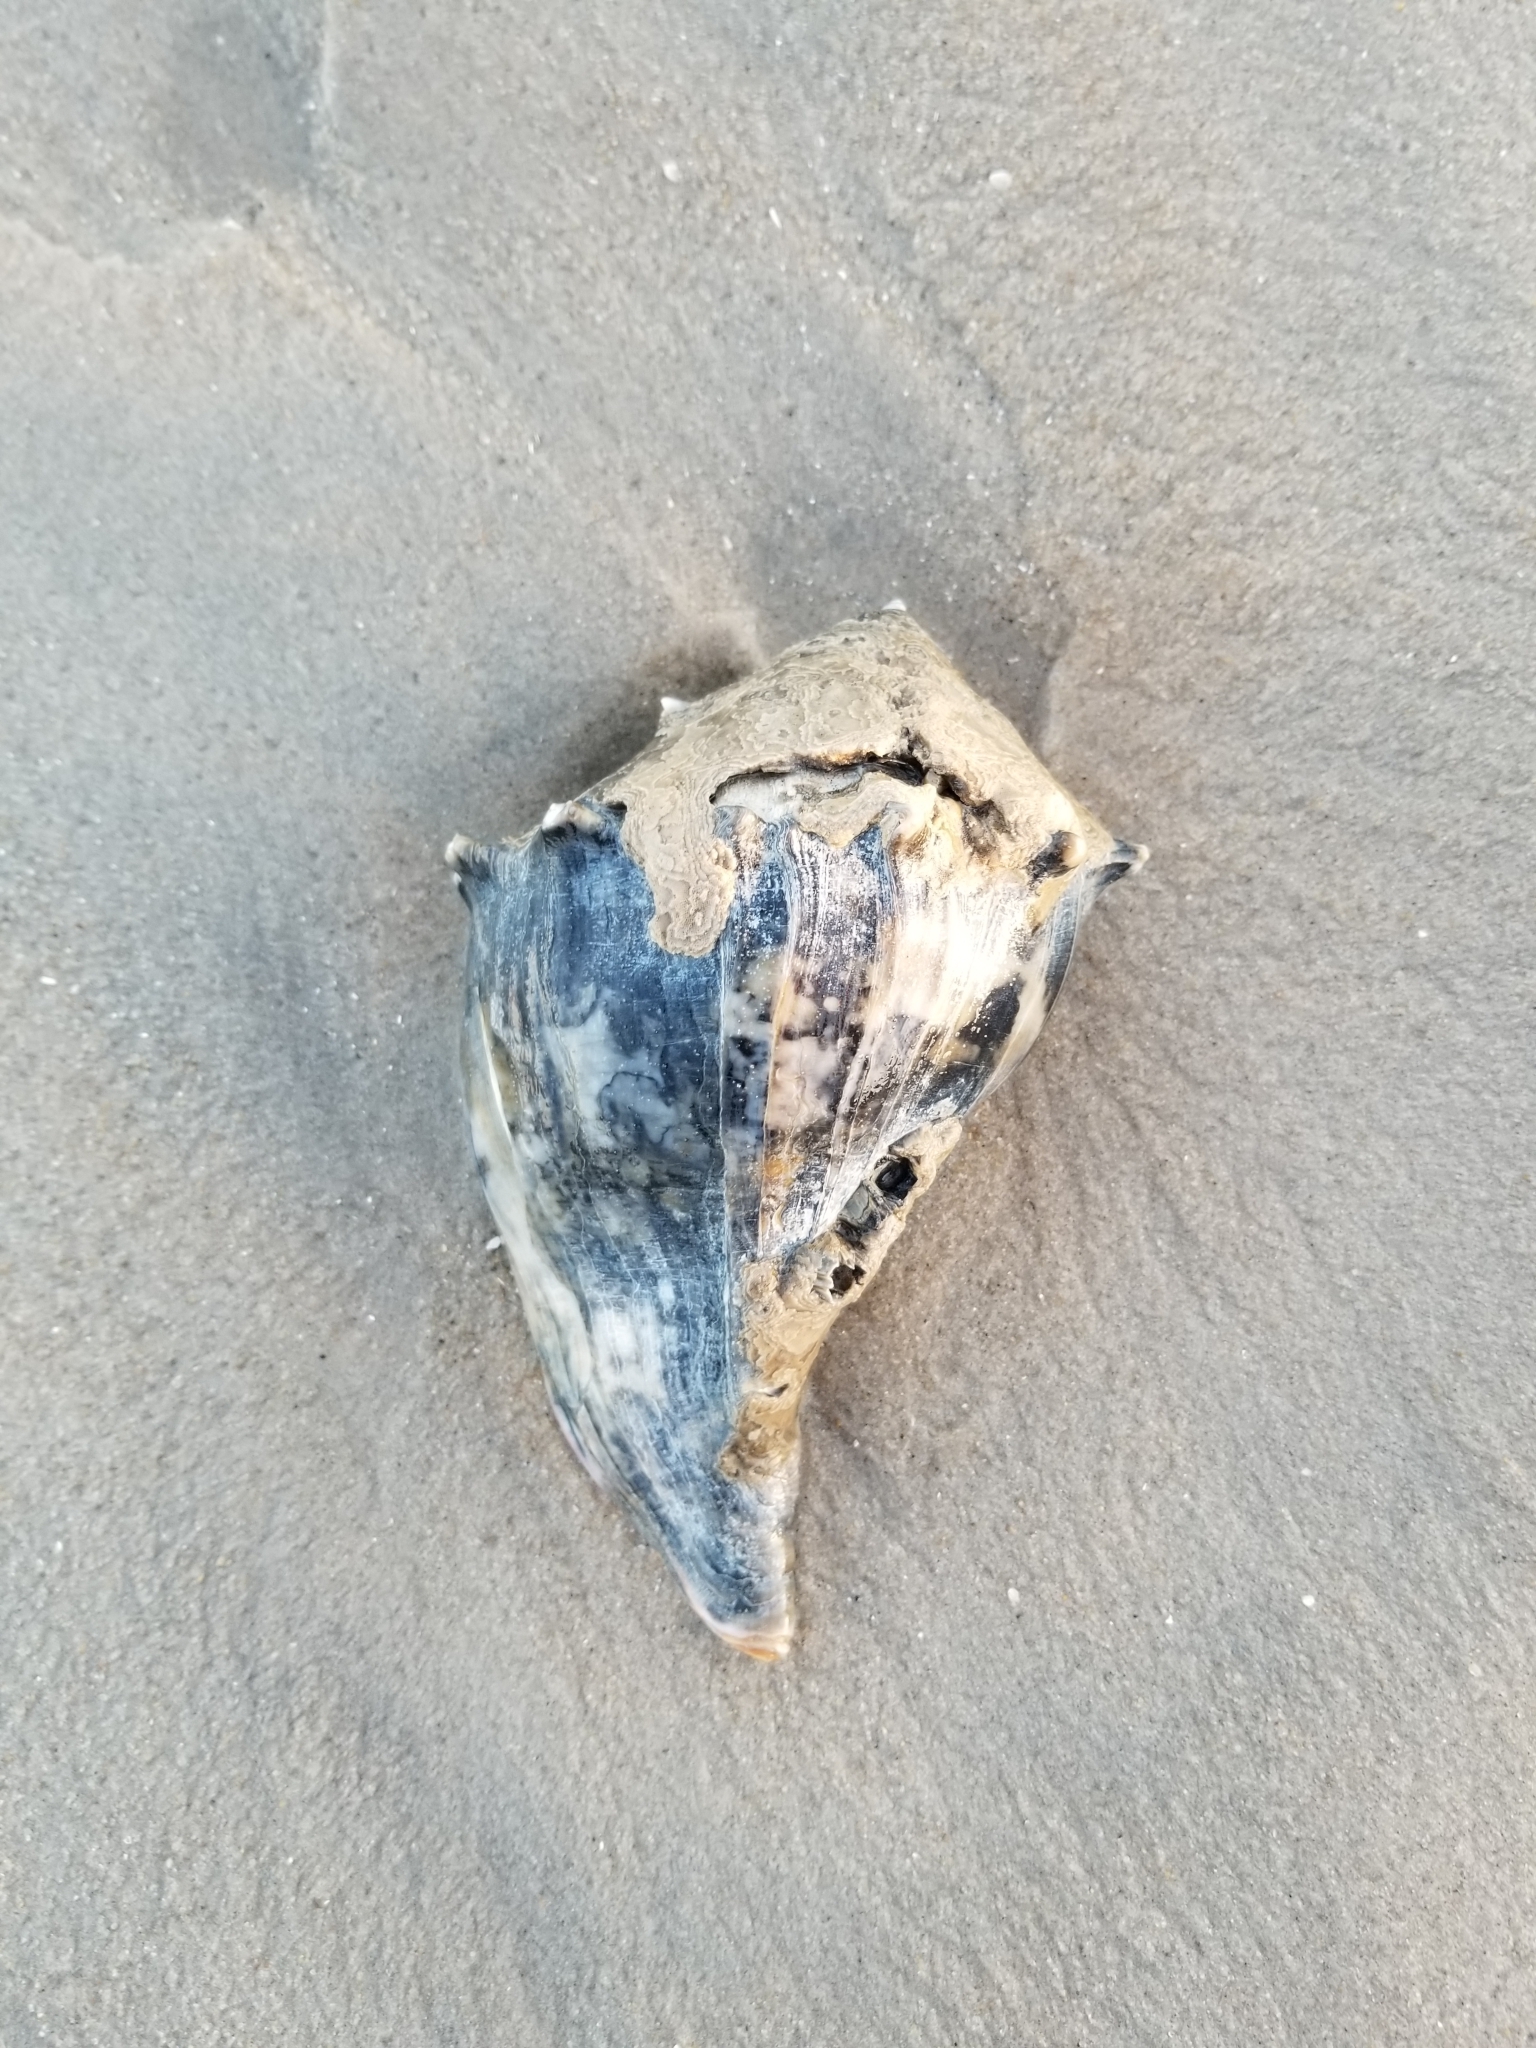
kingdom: Animalia
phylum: Mollusca
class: Gastropoda
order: Neogastropoda
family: Busyconidae
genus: Busycon
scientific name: Busycon carica
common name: Knobbed whelk
